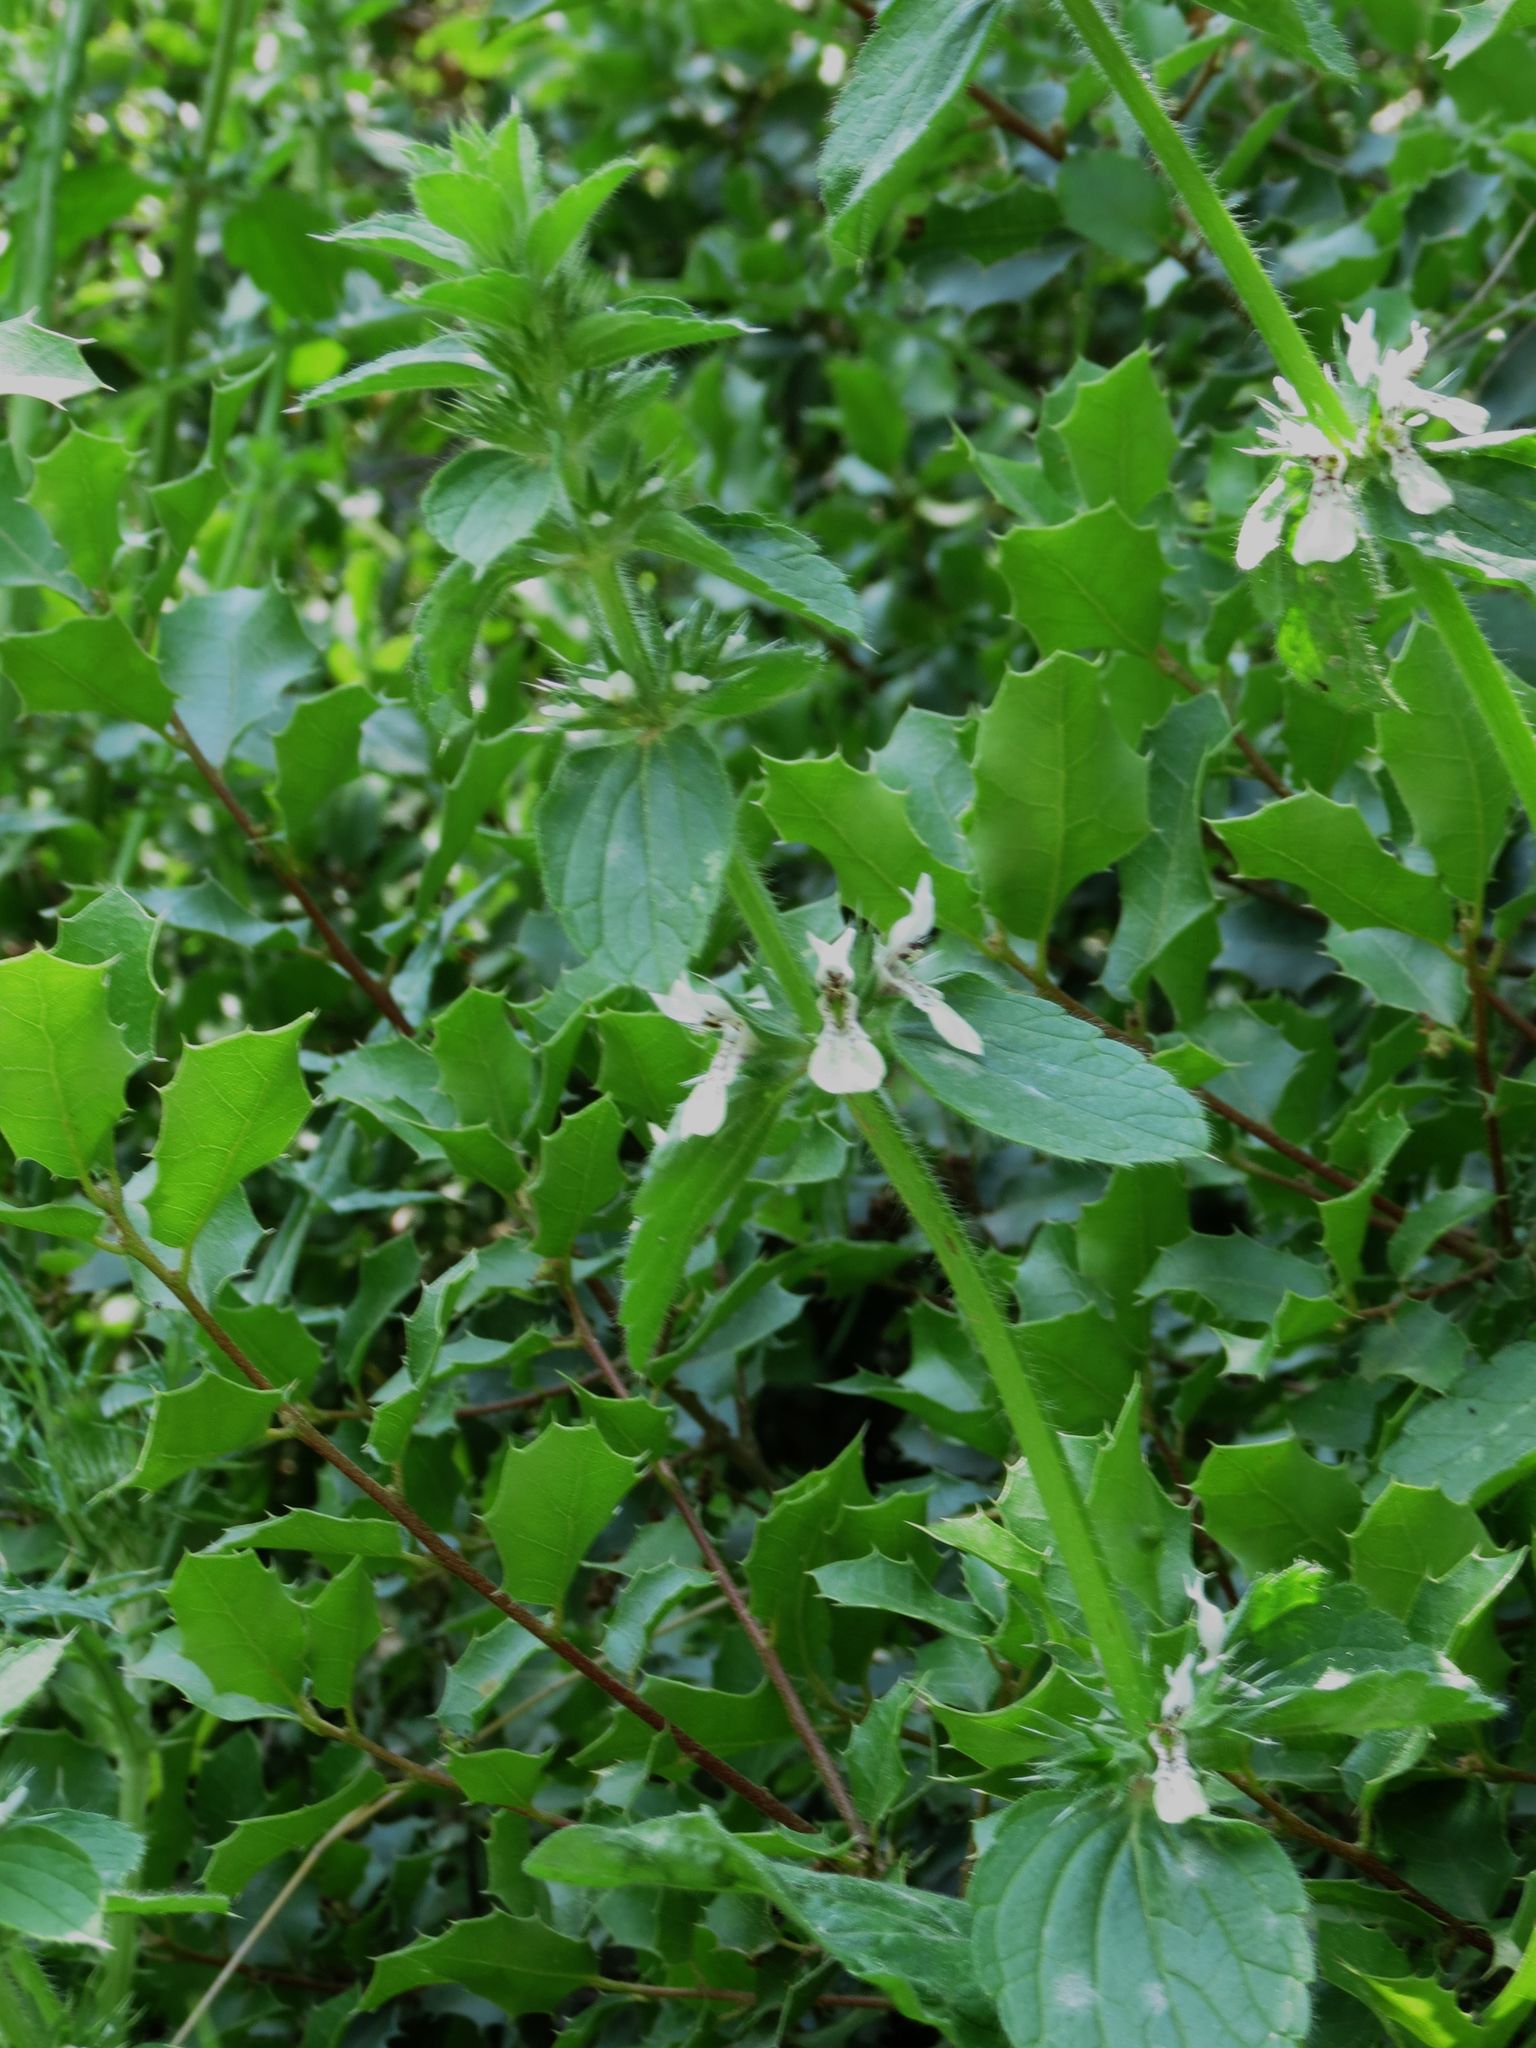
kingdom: Plantae
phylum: Tracheophyta
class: Magnoliopsida
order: Lamiales
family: Lamiaceae
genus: Stachys
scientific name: Stachys ocymastrum
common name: Italian hedgenettle
